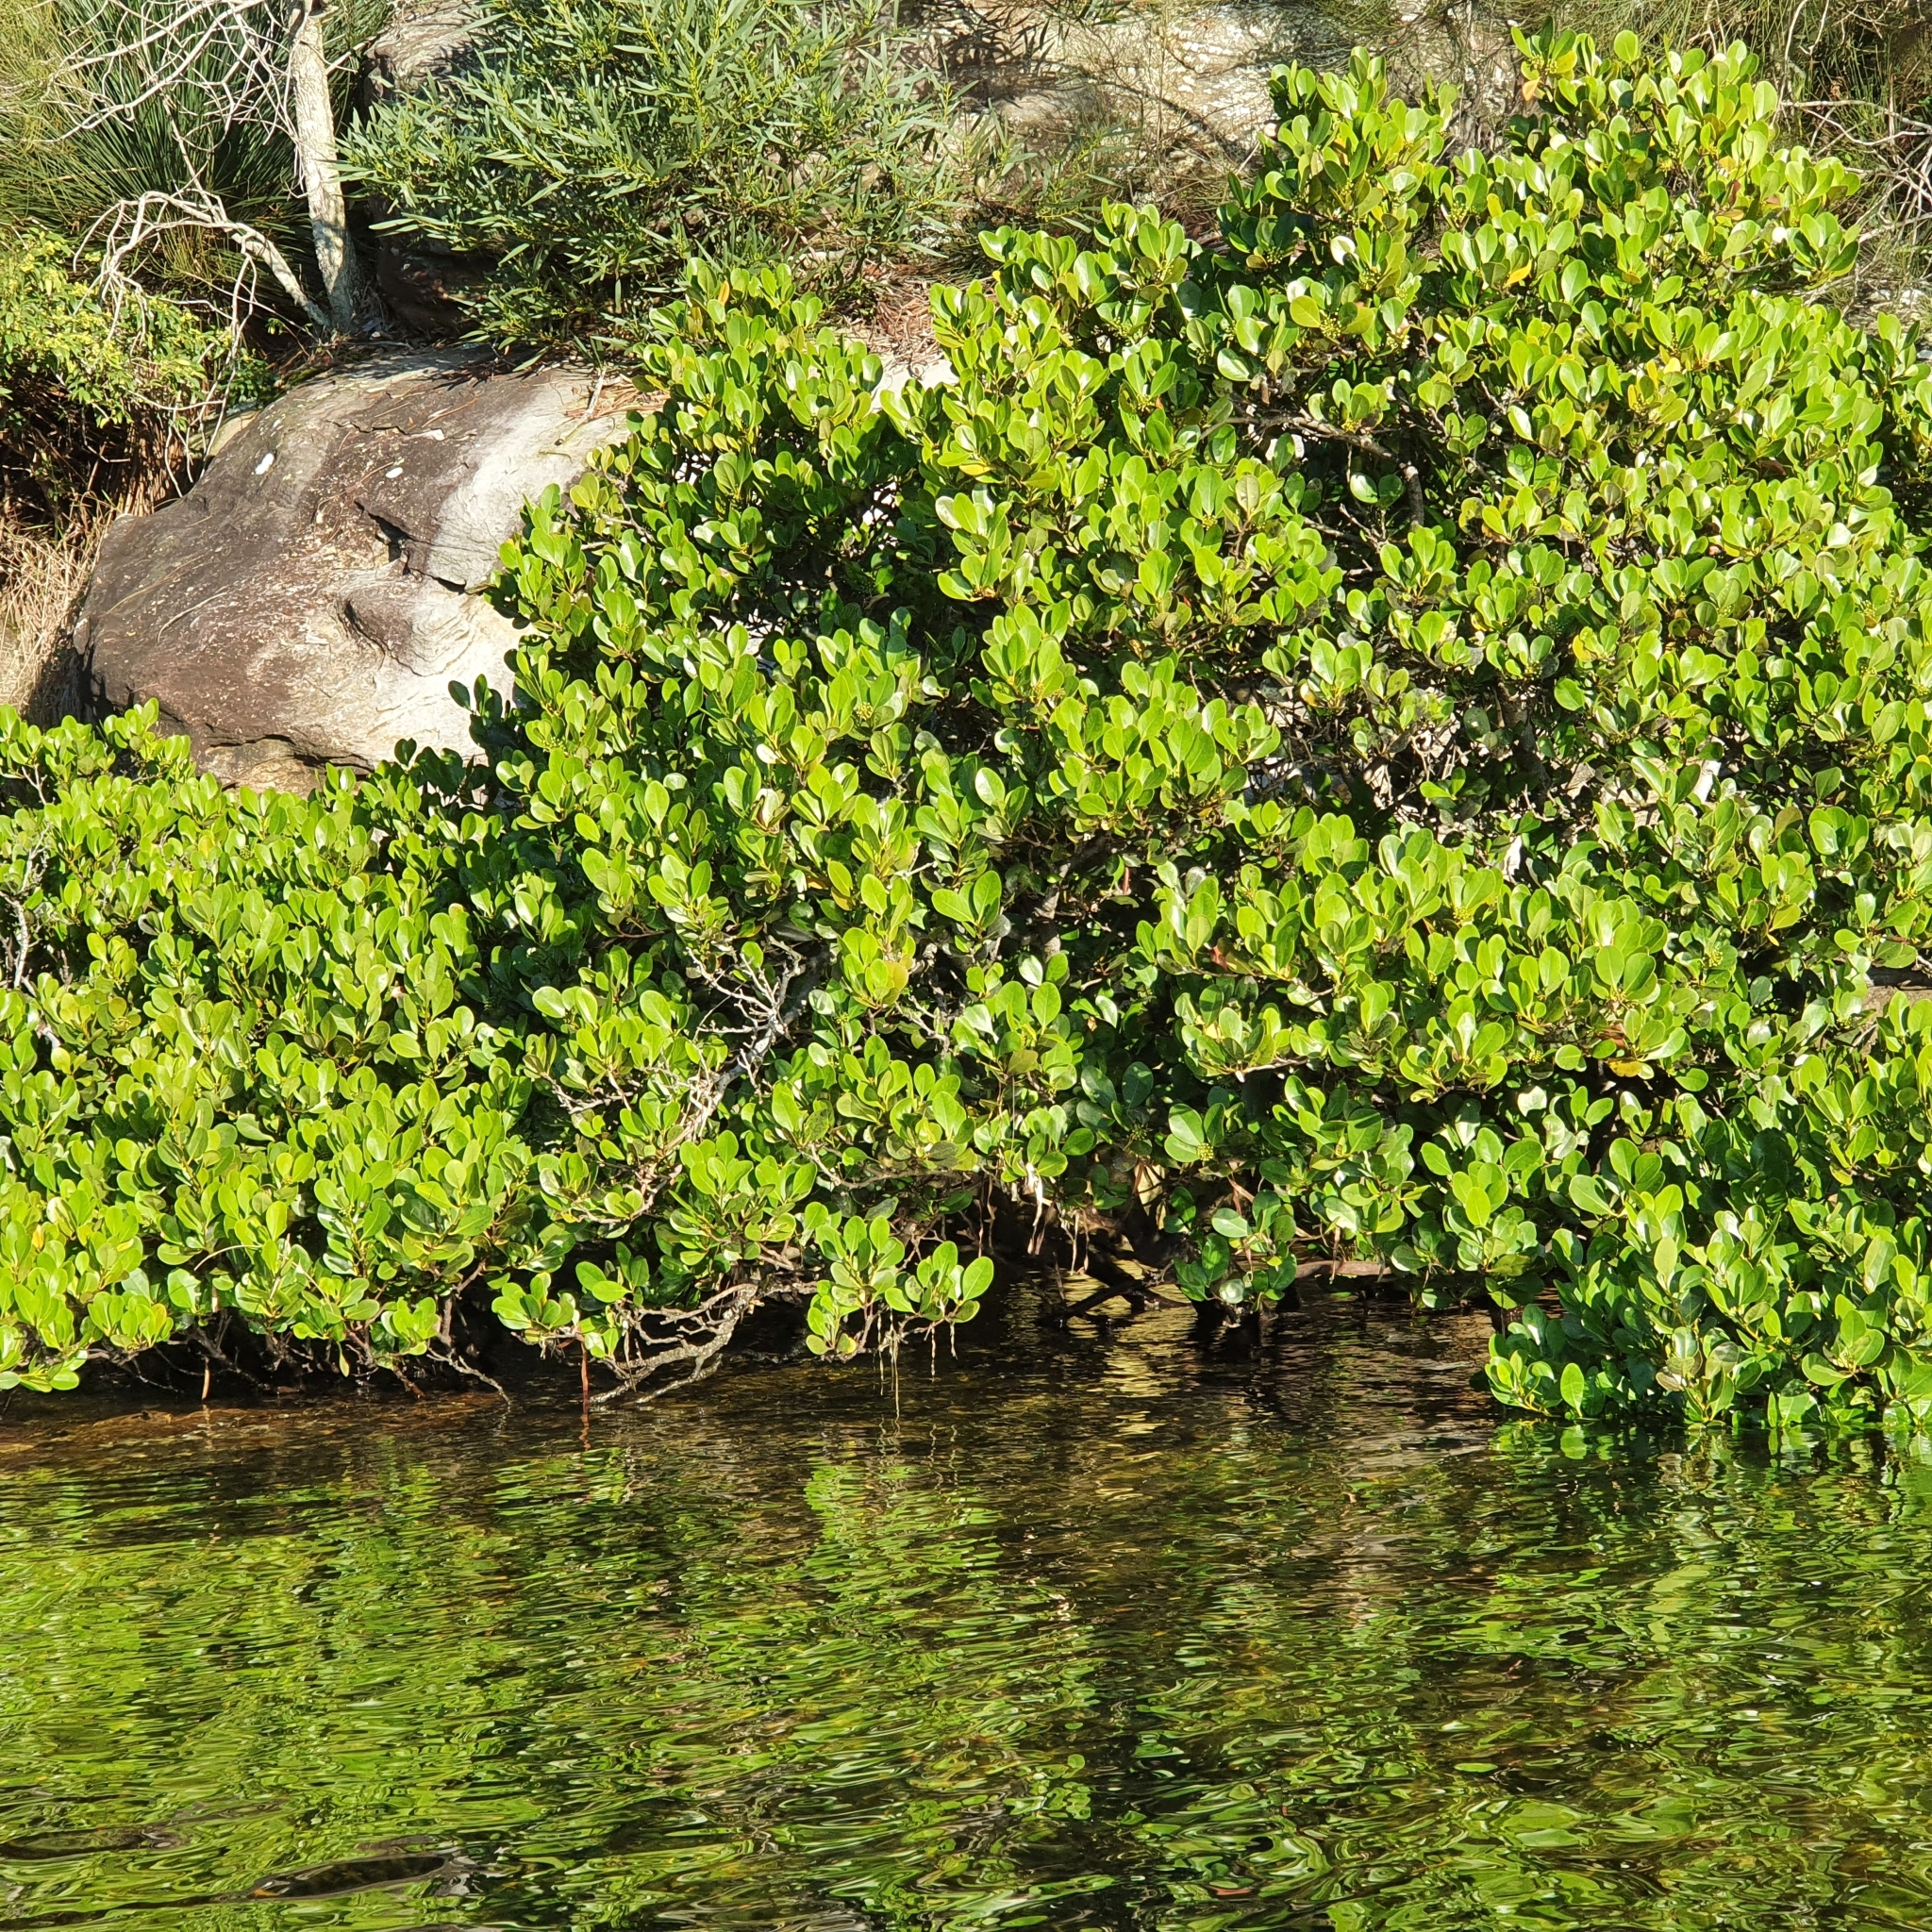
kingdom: Plantae
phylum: Tracheophyta
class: Magnoliopsida
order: Ericales
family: Primulaceae
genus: Aegiceras
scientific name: Aegiceras corniculatum
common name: River mangrove
